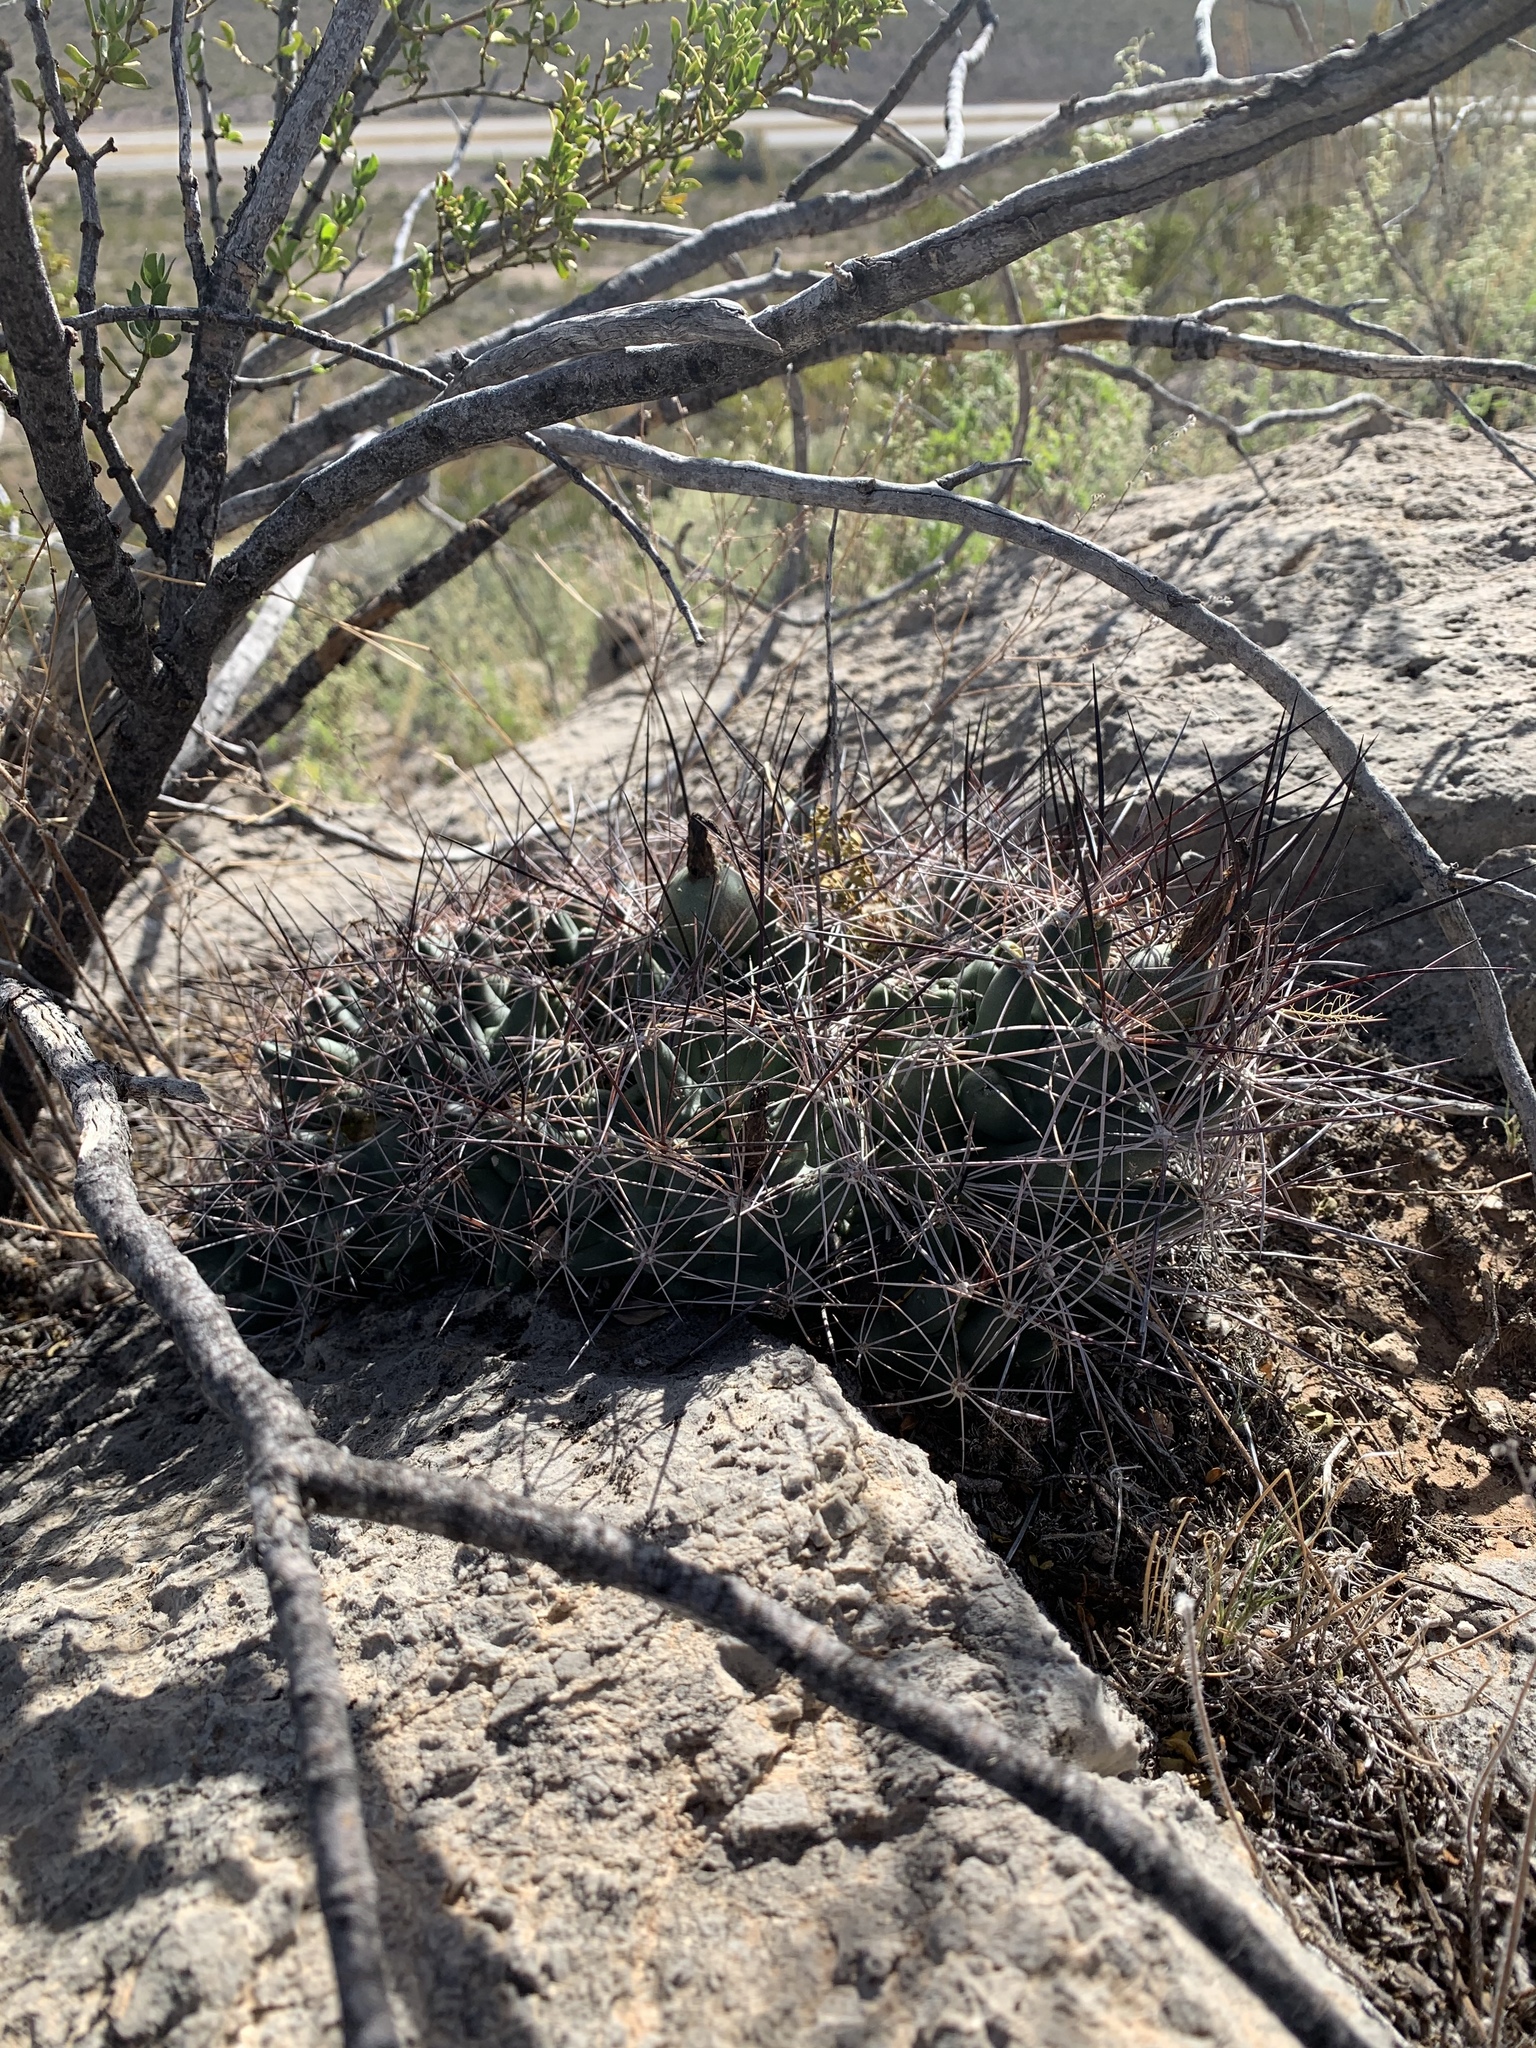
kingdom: Plantae
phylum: Tracheophyta
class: Magnoliopsida
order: Caryophyllales
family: Cactaceae
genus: Coryphantha
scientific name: Coryphantha macromeris
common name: Nipple beehive cactus
